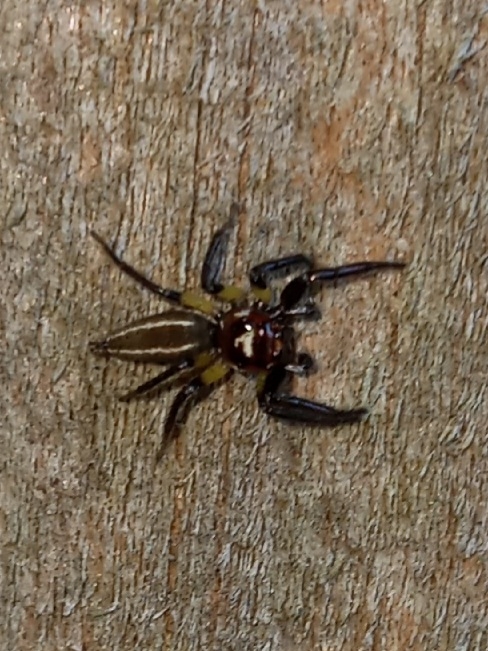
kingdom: Animalia
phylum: Arthropoda
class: Arachnida
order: Araneae
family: Salticidae
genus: Colonus
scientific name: Colonus sylvanus
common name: Jumping spiders
